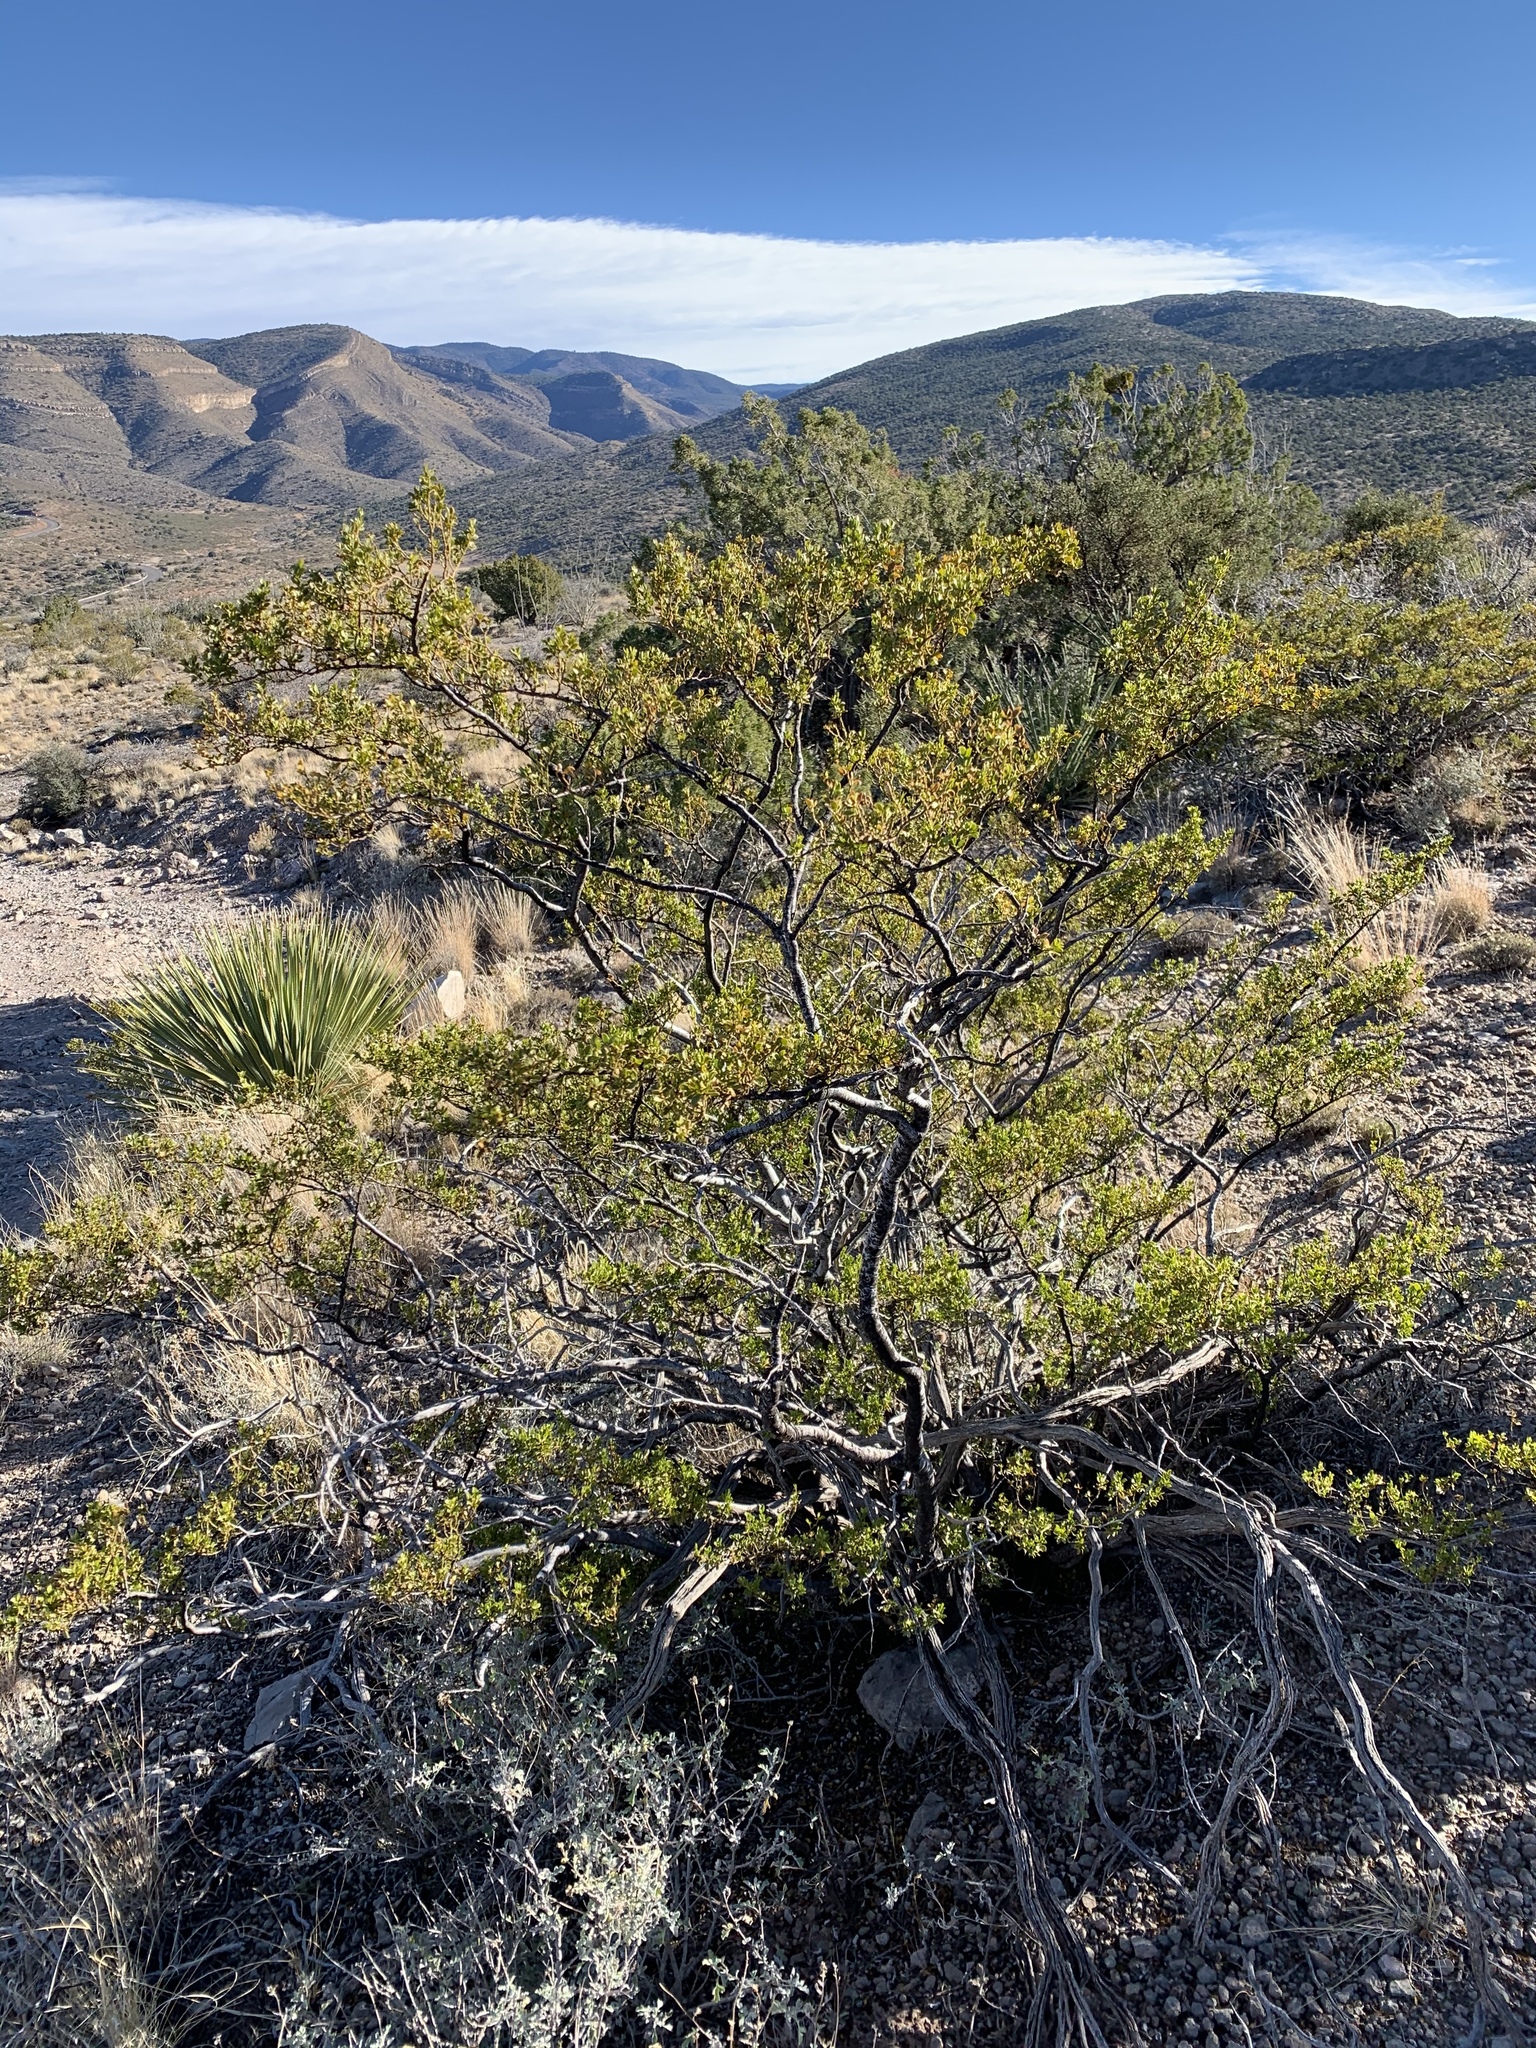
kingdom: Plantae
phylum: Tracheophyta
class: Magnoliopsida
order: Zygophyllales
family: Zygophyllaceae
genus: Larrea
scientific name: Larrea tridentata
